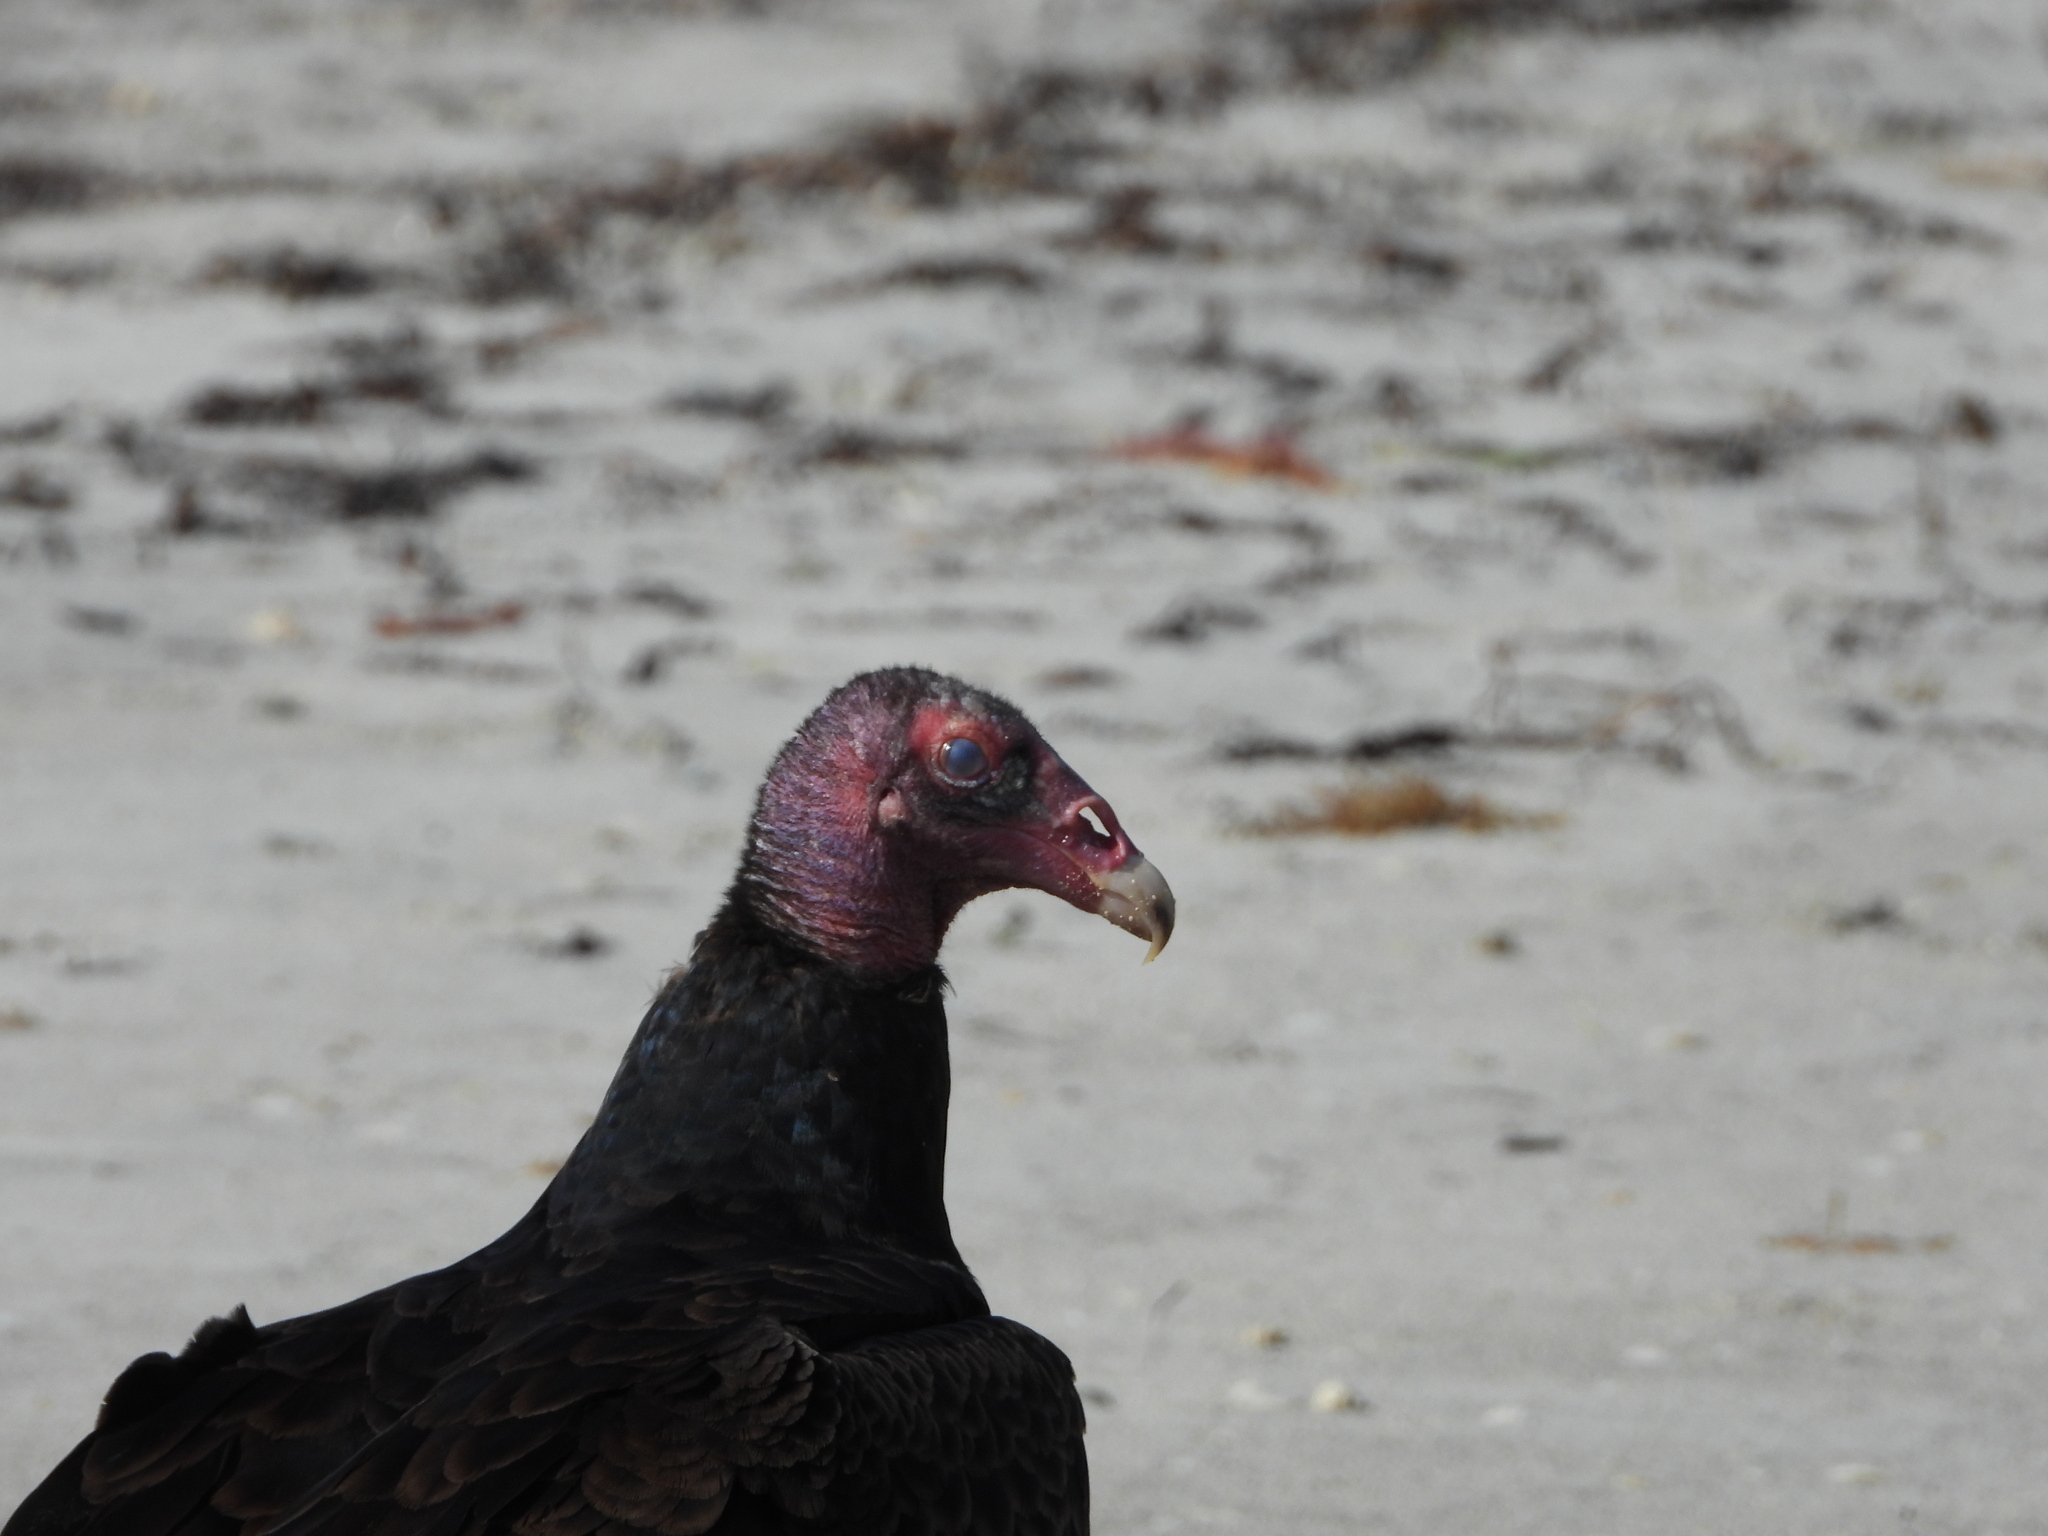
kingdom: Animalia
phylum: Chordata
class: Aves
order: Accipitriformes
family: Cathartidae
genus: Cathartes
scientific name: Cathartes aura
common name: Turkey vulture
